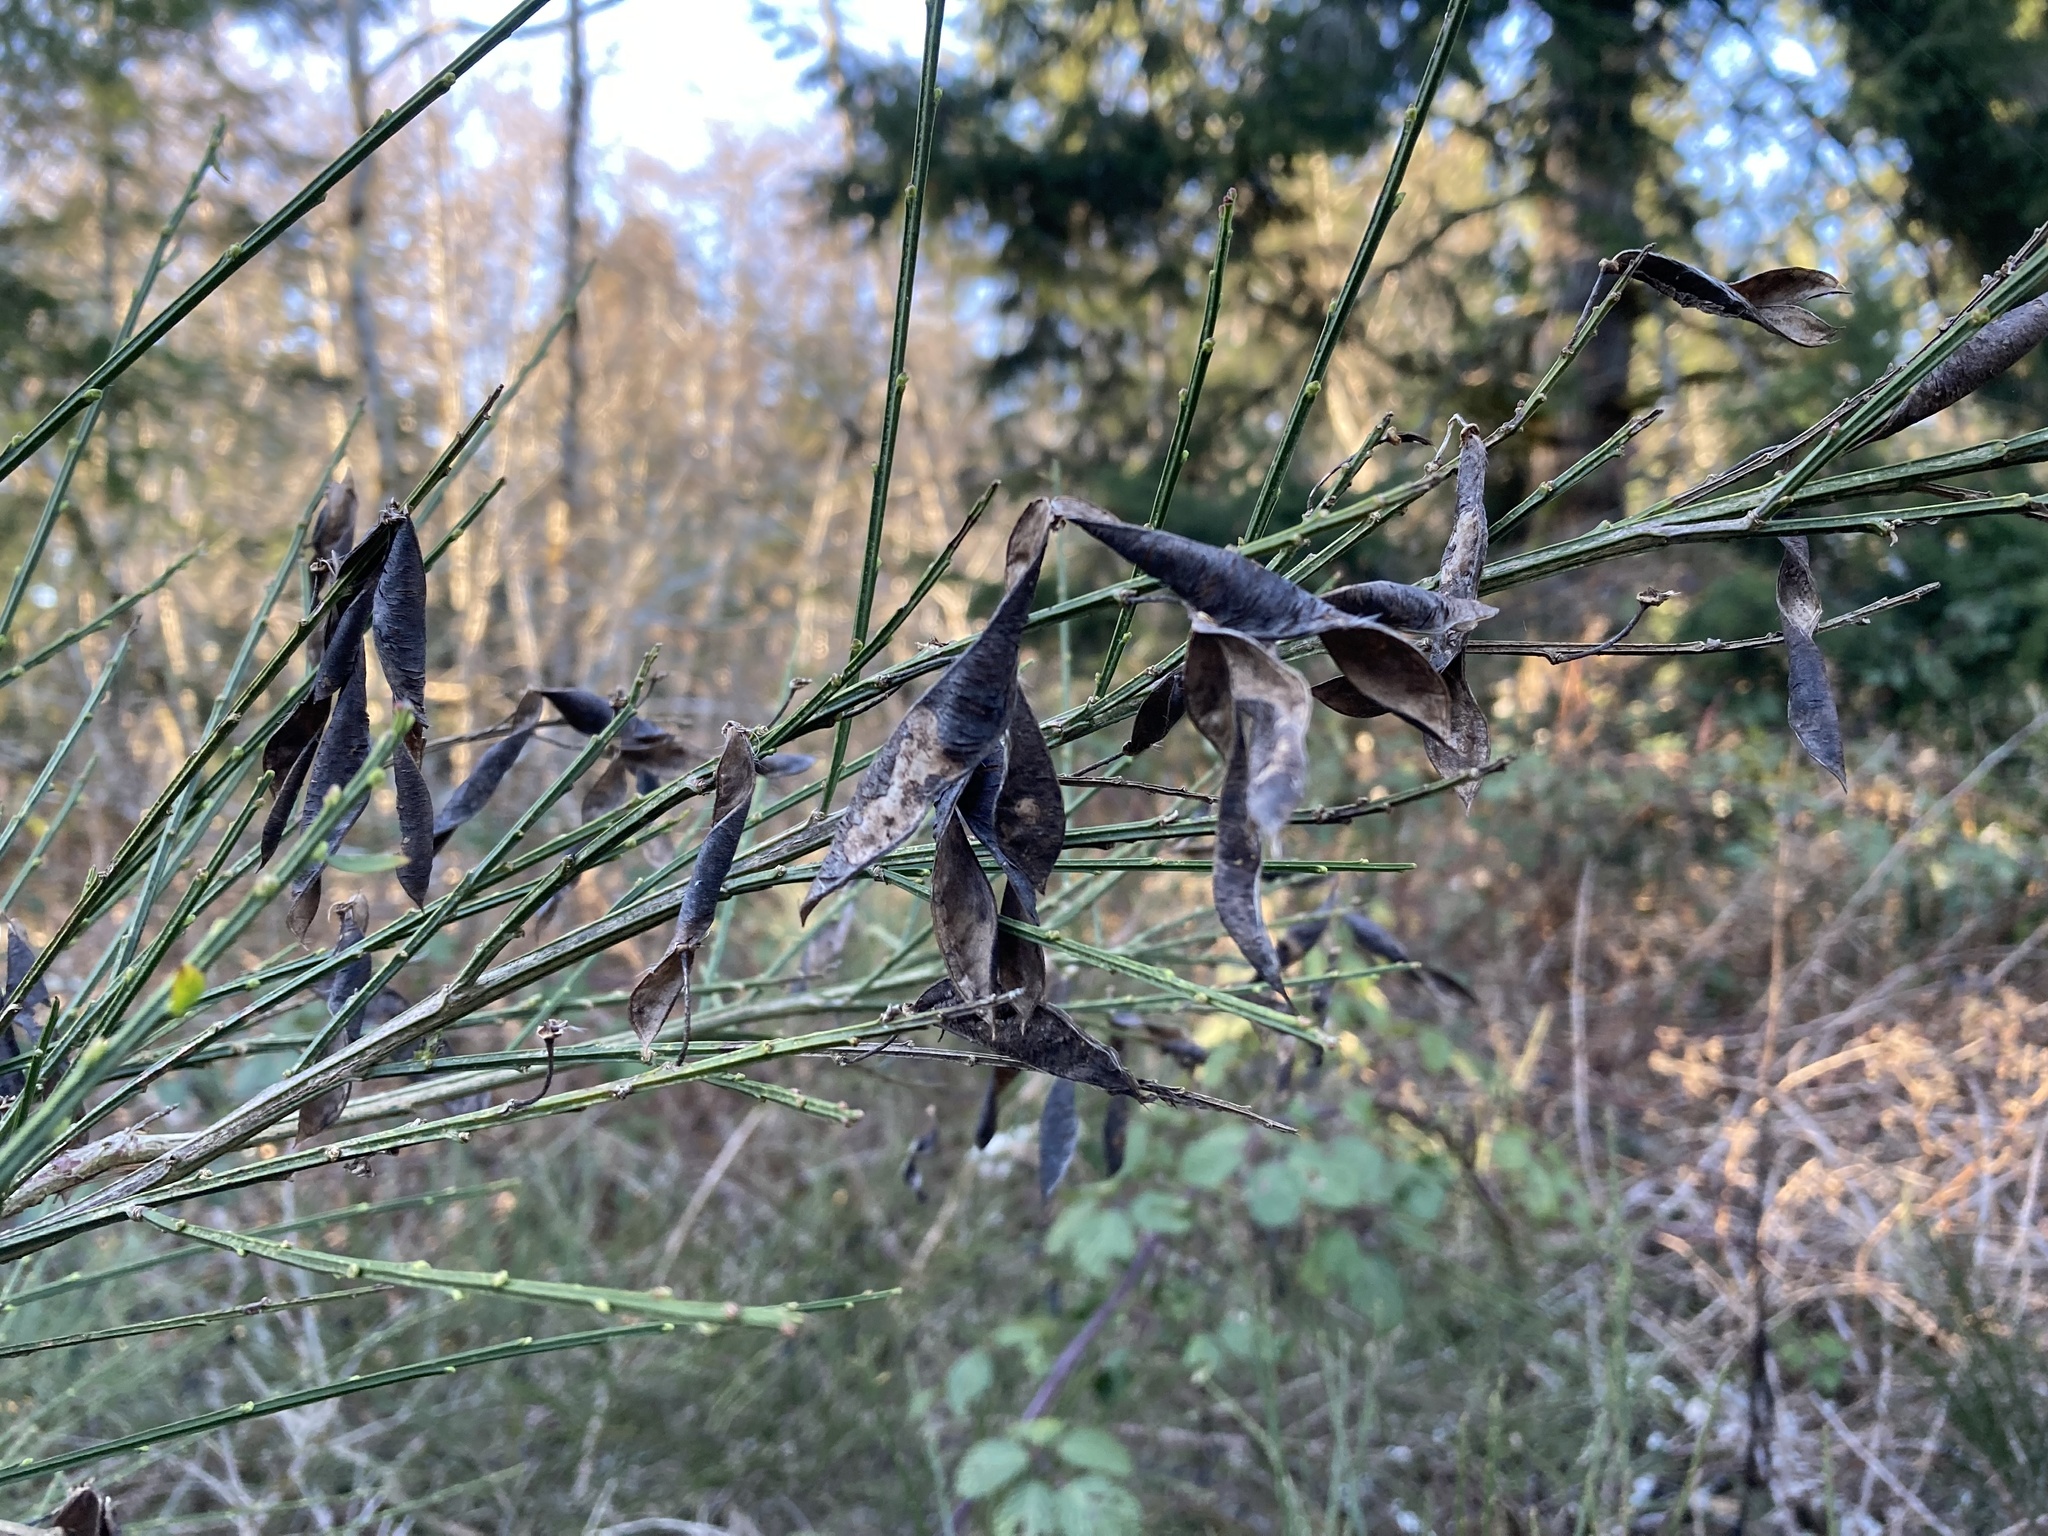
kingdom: Plantae
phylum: Tracheophyta
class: Magnoliopsida
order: Fabales
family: Fabaceae
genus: Cytisus
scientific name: Cytisus scoparius
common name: Scotch broom
